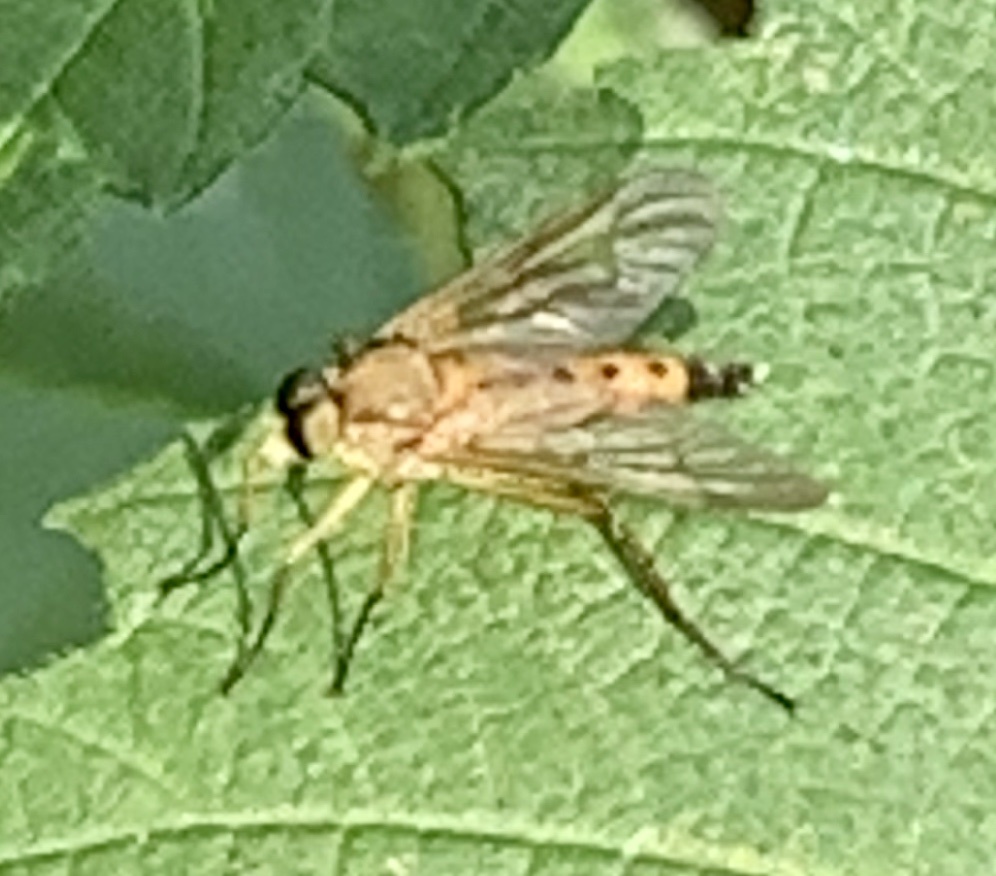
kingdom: Animalia
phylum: Arthropoda
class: Insecta
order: Diptera
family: Rhagionidae
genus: Rhagio
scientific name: Rhagio tringaria
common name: Marsh snipefly
